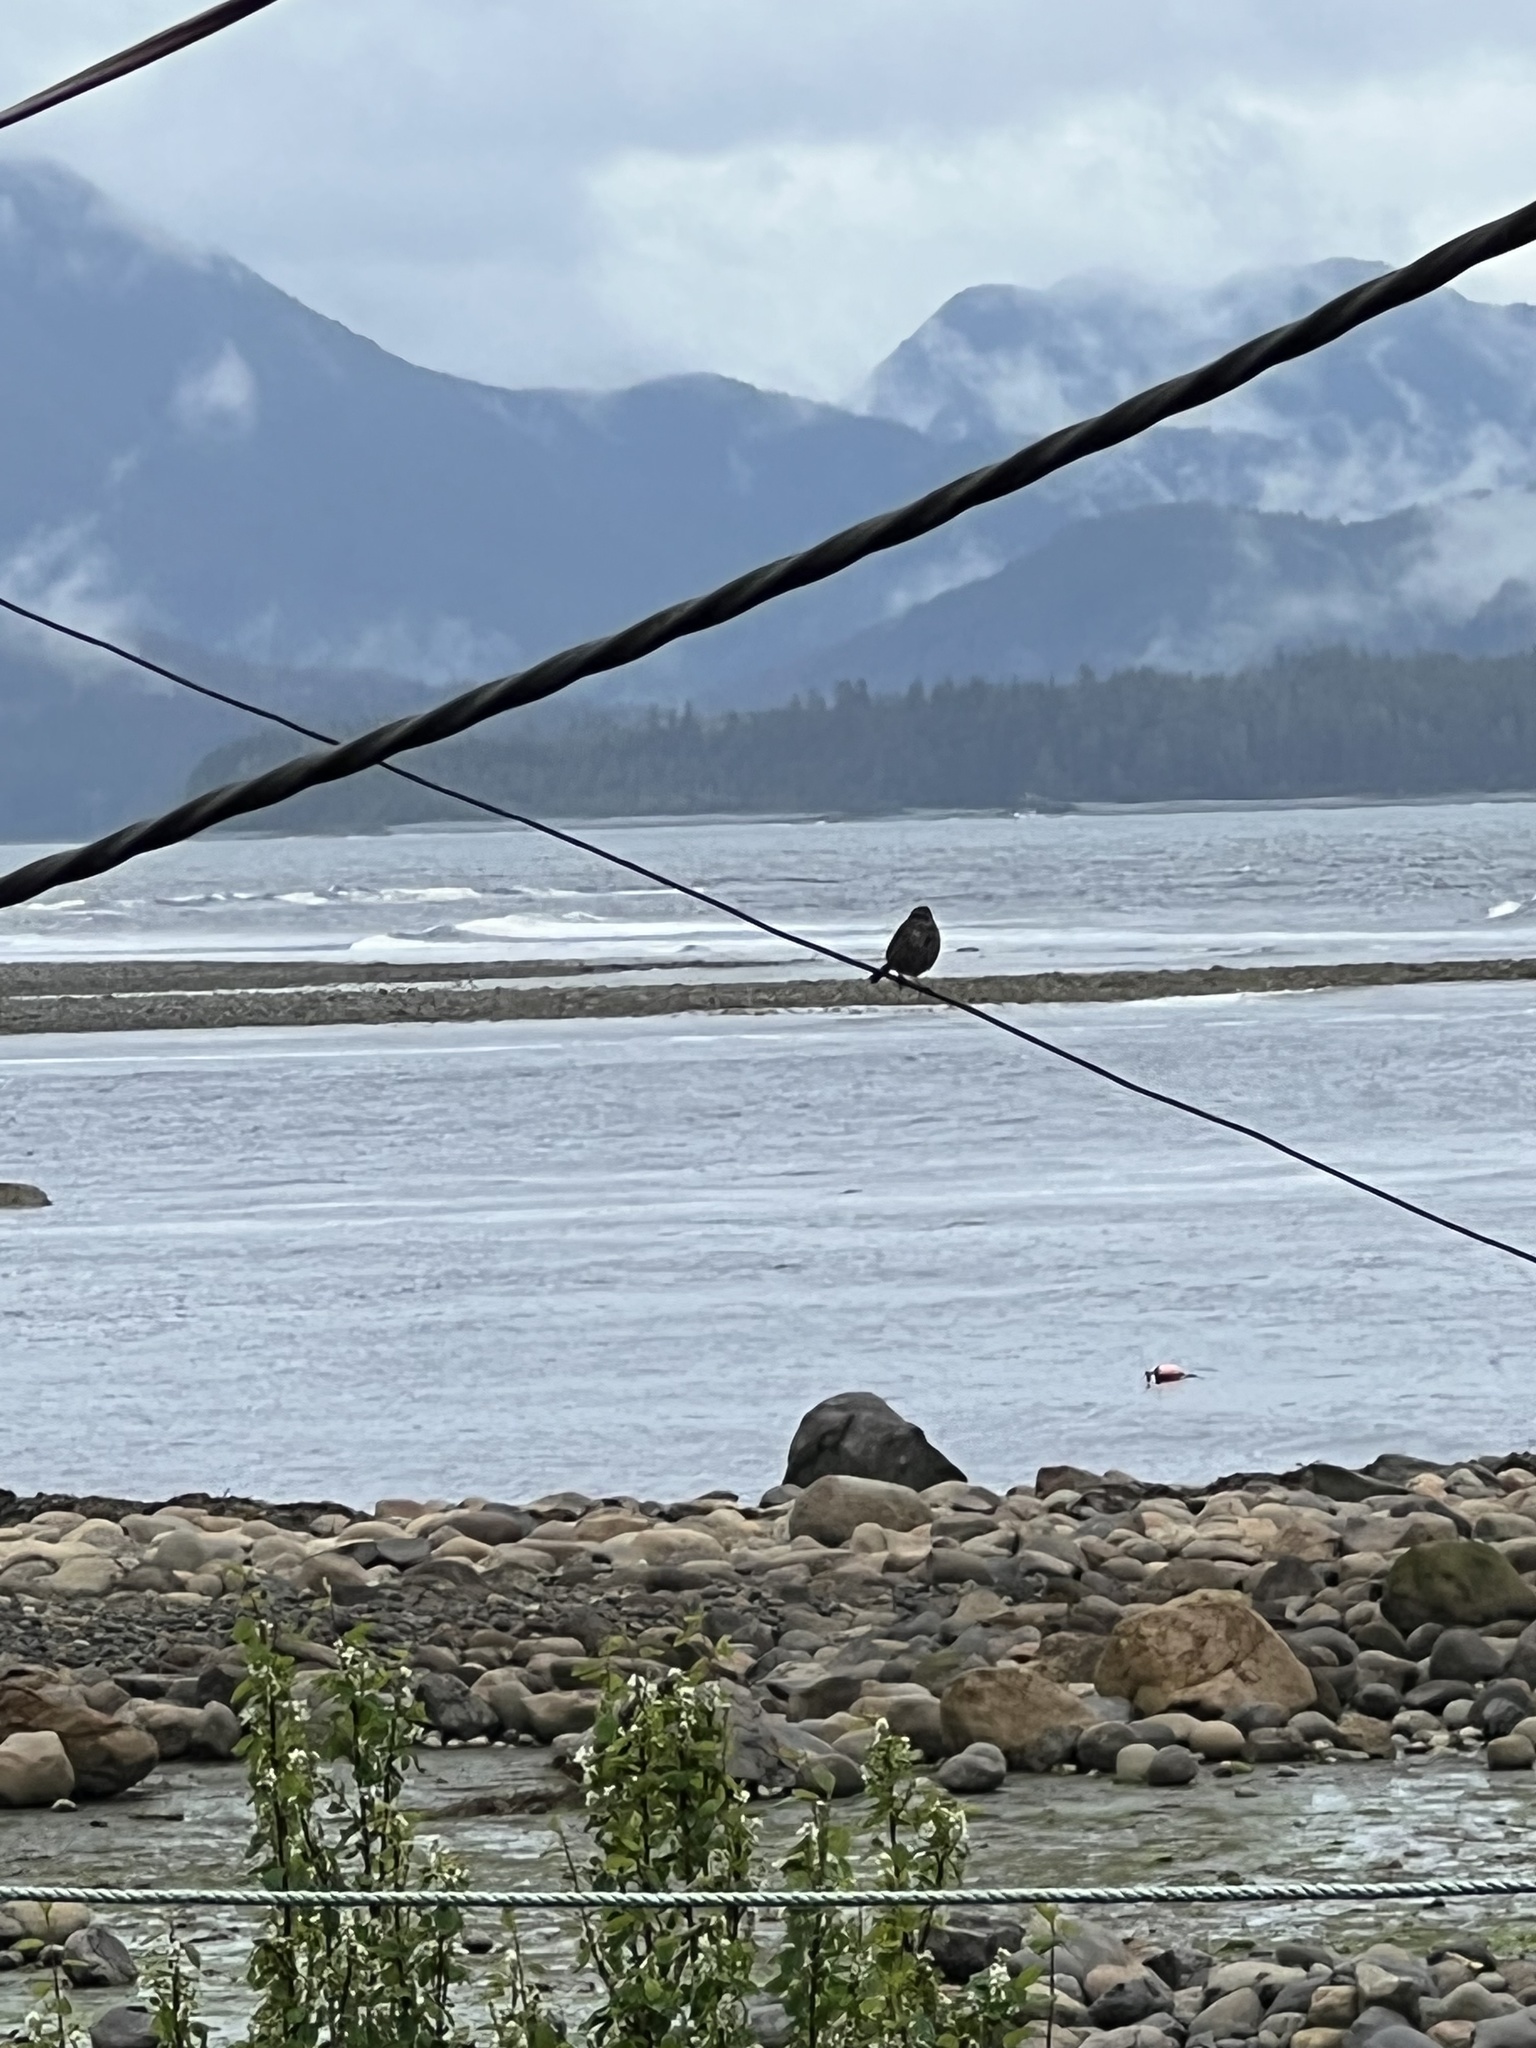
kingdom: Animalia
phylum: Chordata
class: Aves
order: Passeriformes
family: Passerellidae
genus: Melospiza
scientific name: Melospiza melodia
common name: Song sparrow
